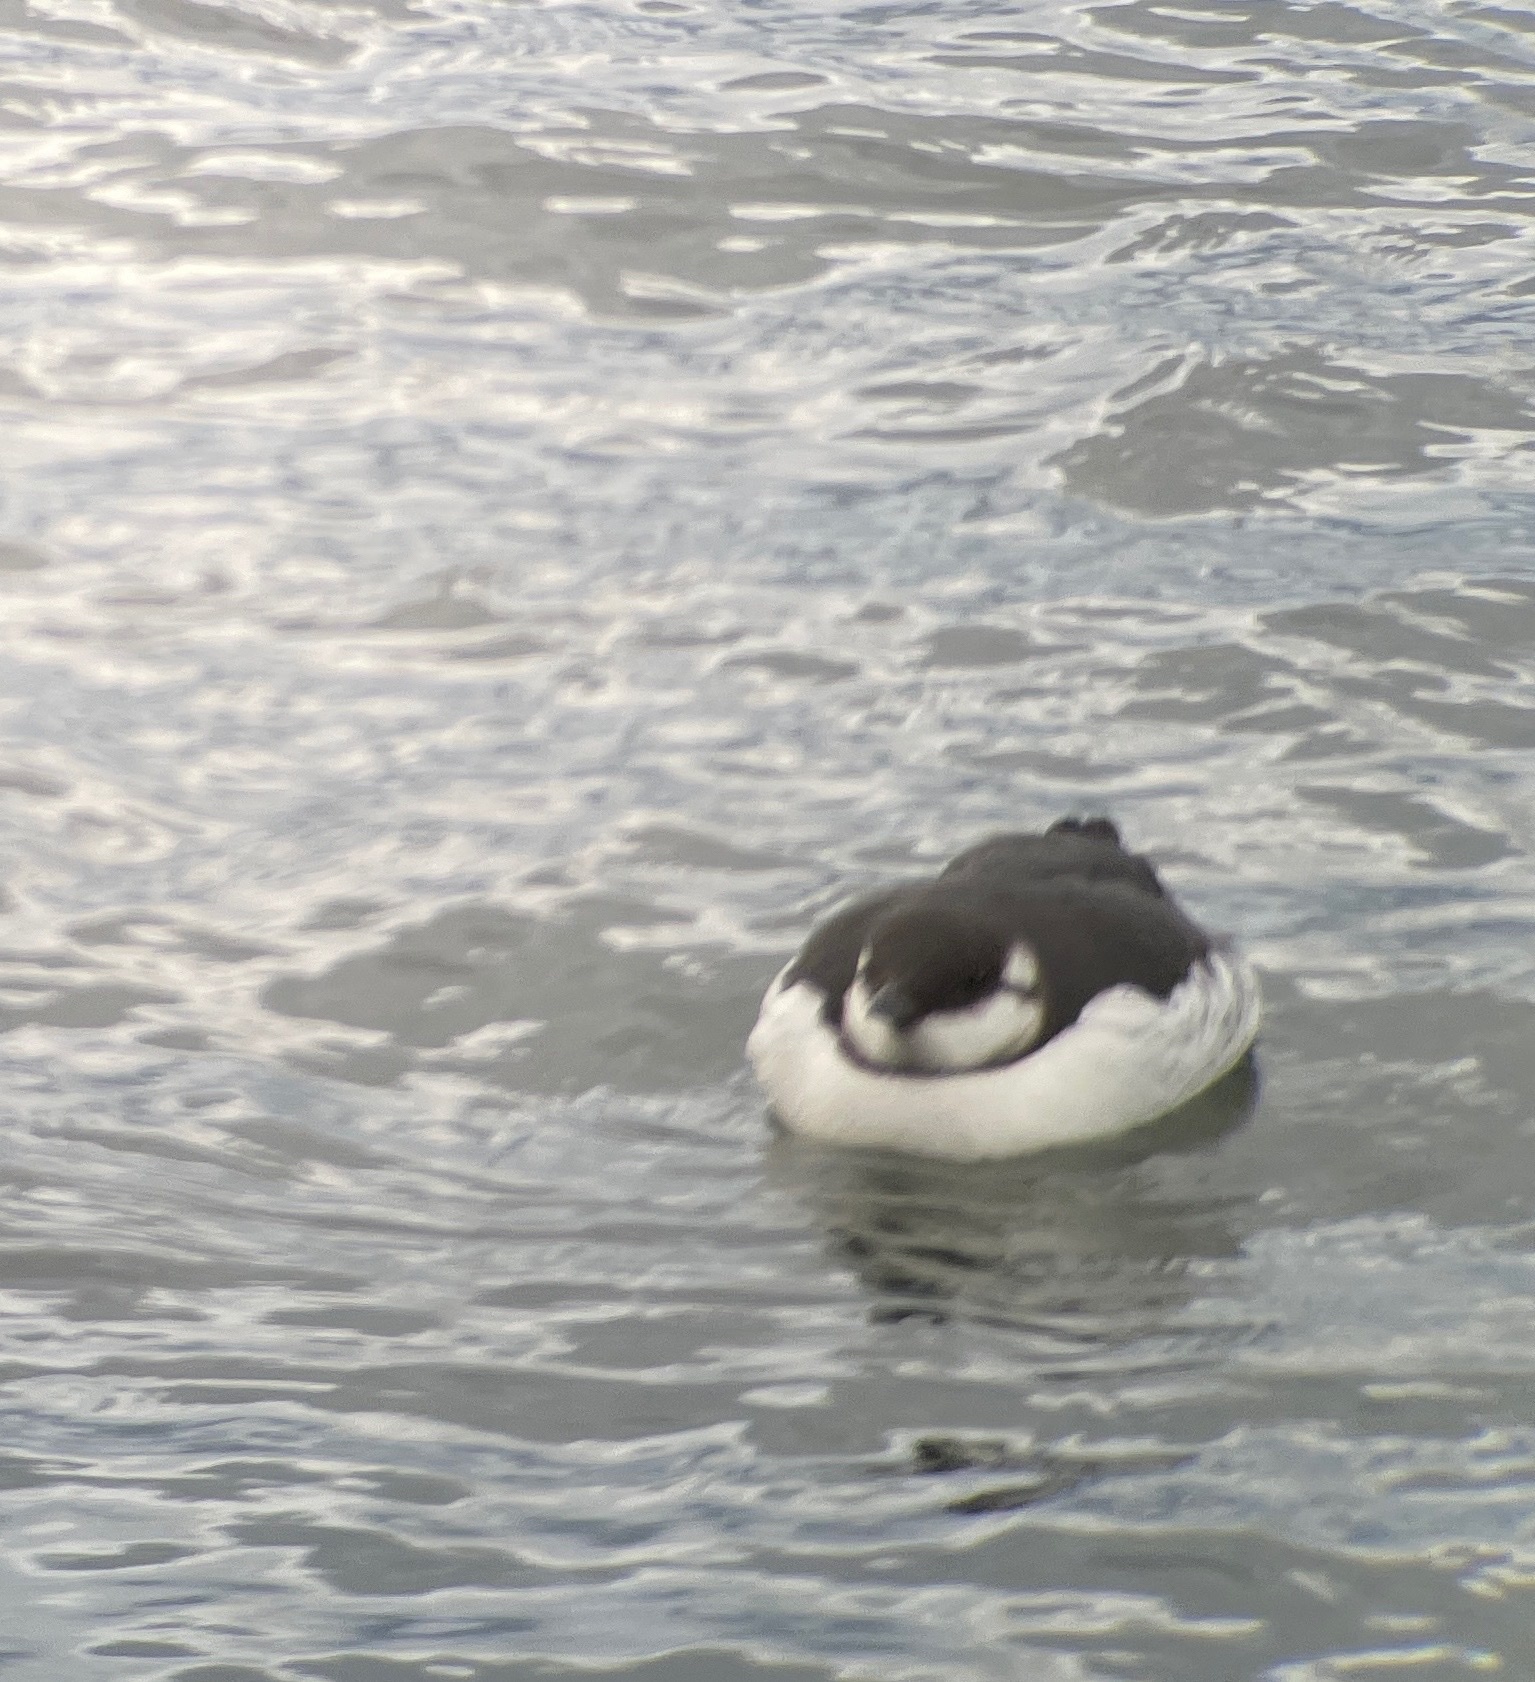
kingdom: Animalia
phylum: Chordata
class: Aves
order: Charadriiformes
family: Alcidae
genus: Uria
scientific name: Uria aalge
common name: Common murre
